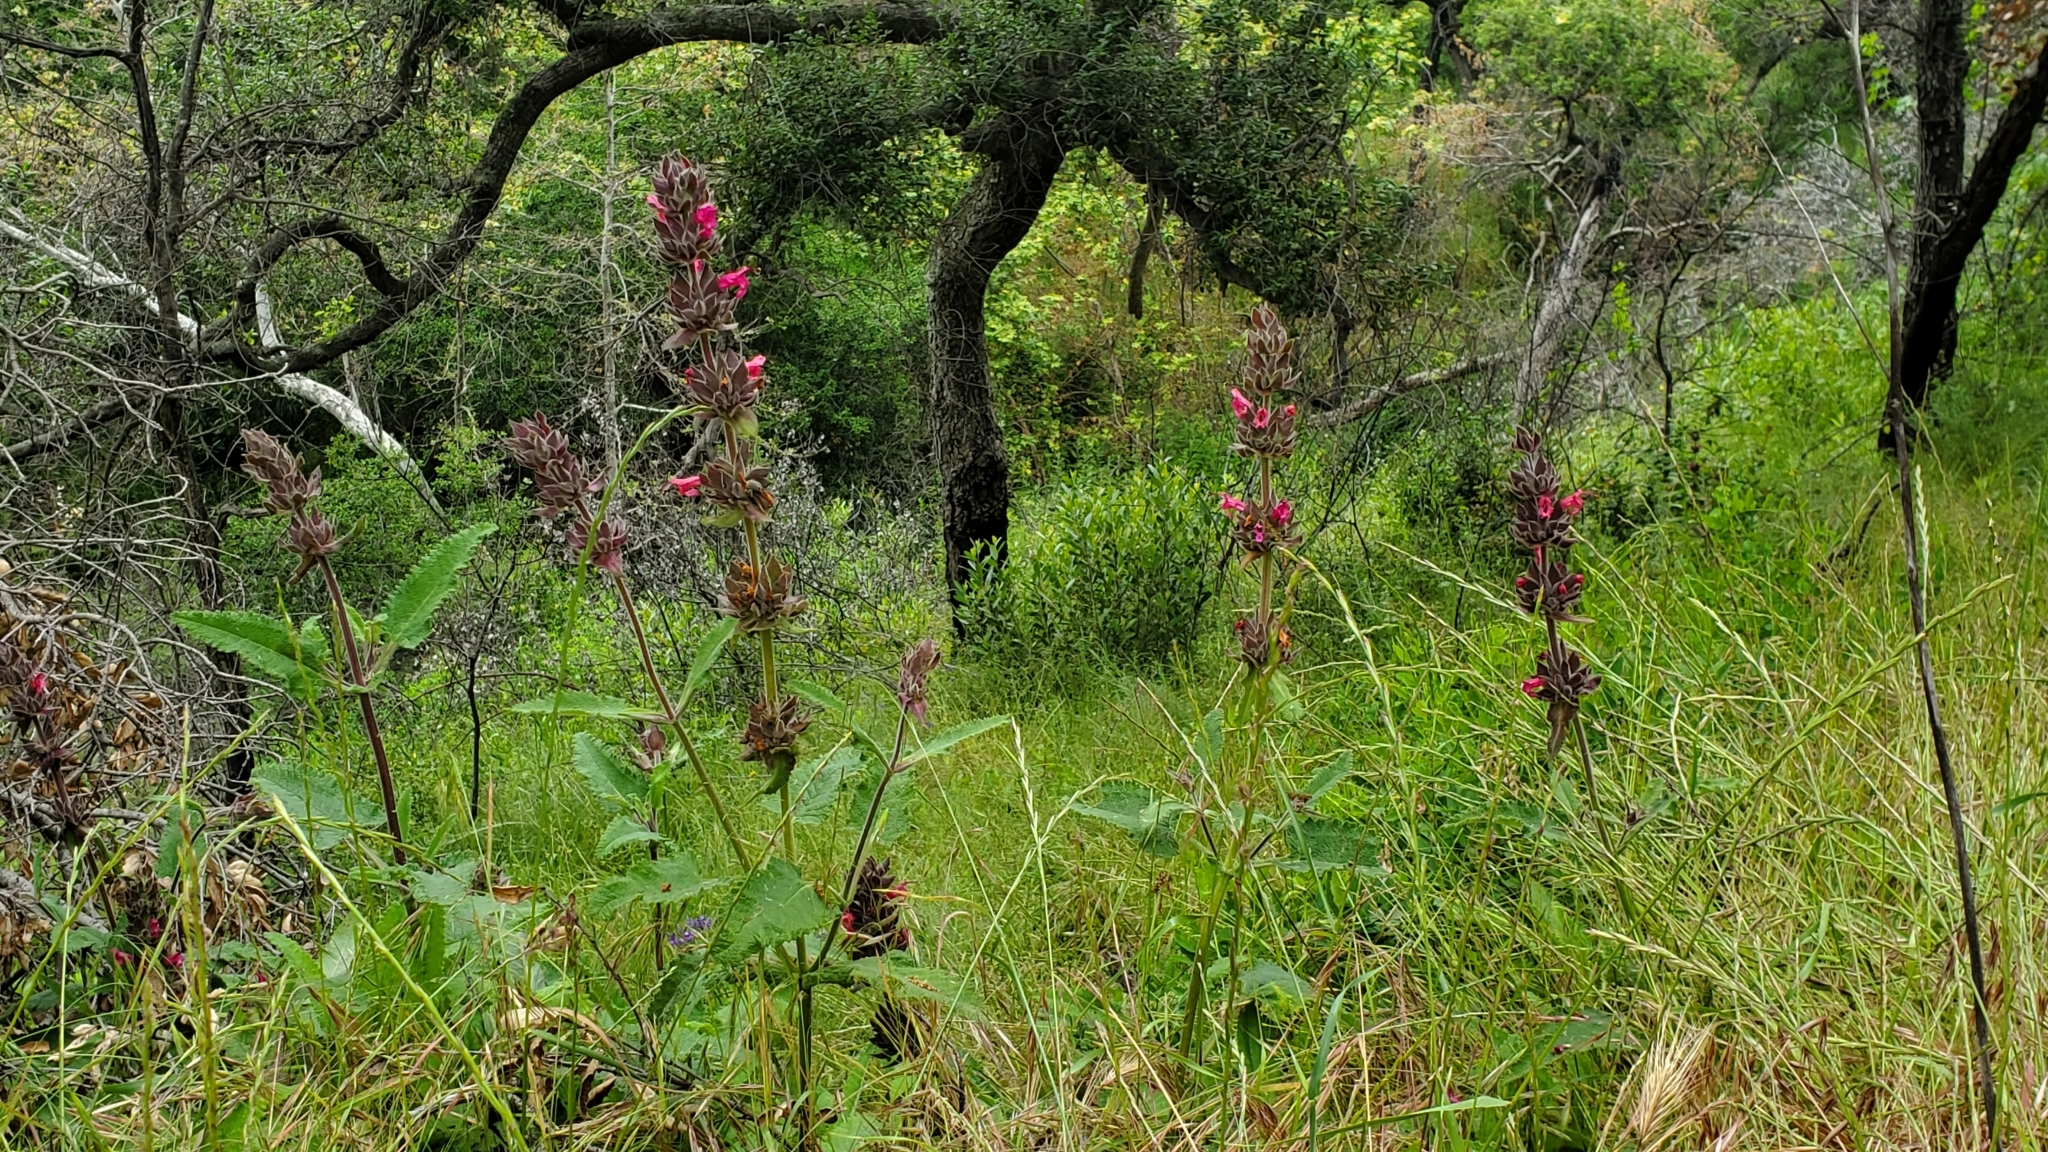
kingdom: Plantae
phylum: Tracheophyta
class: Magnoliopsida
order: Lamiales
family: Lamiaceae
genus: Salvia
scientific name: Salvia spathacea
